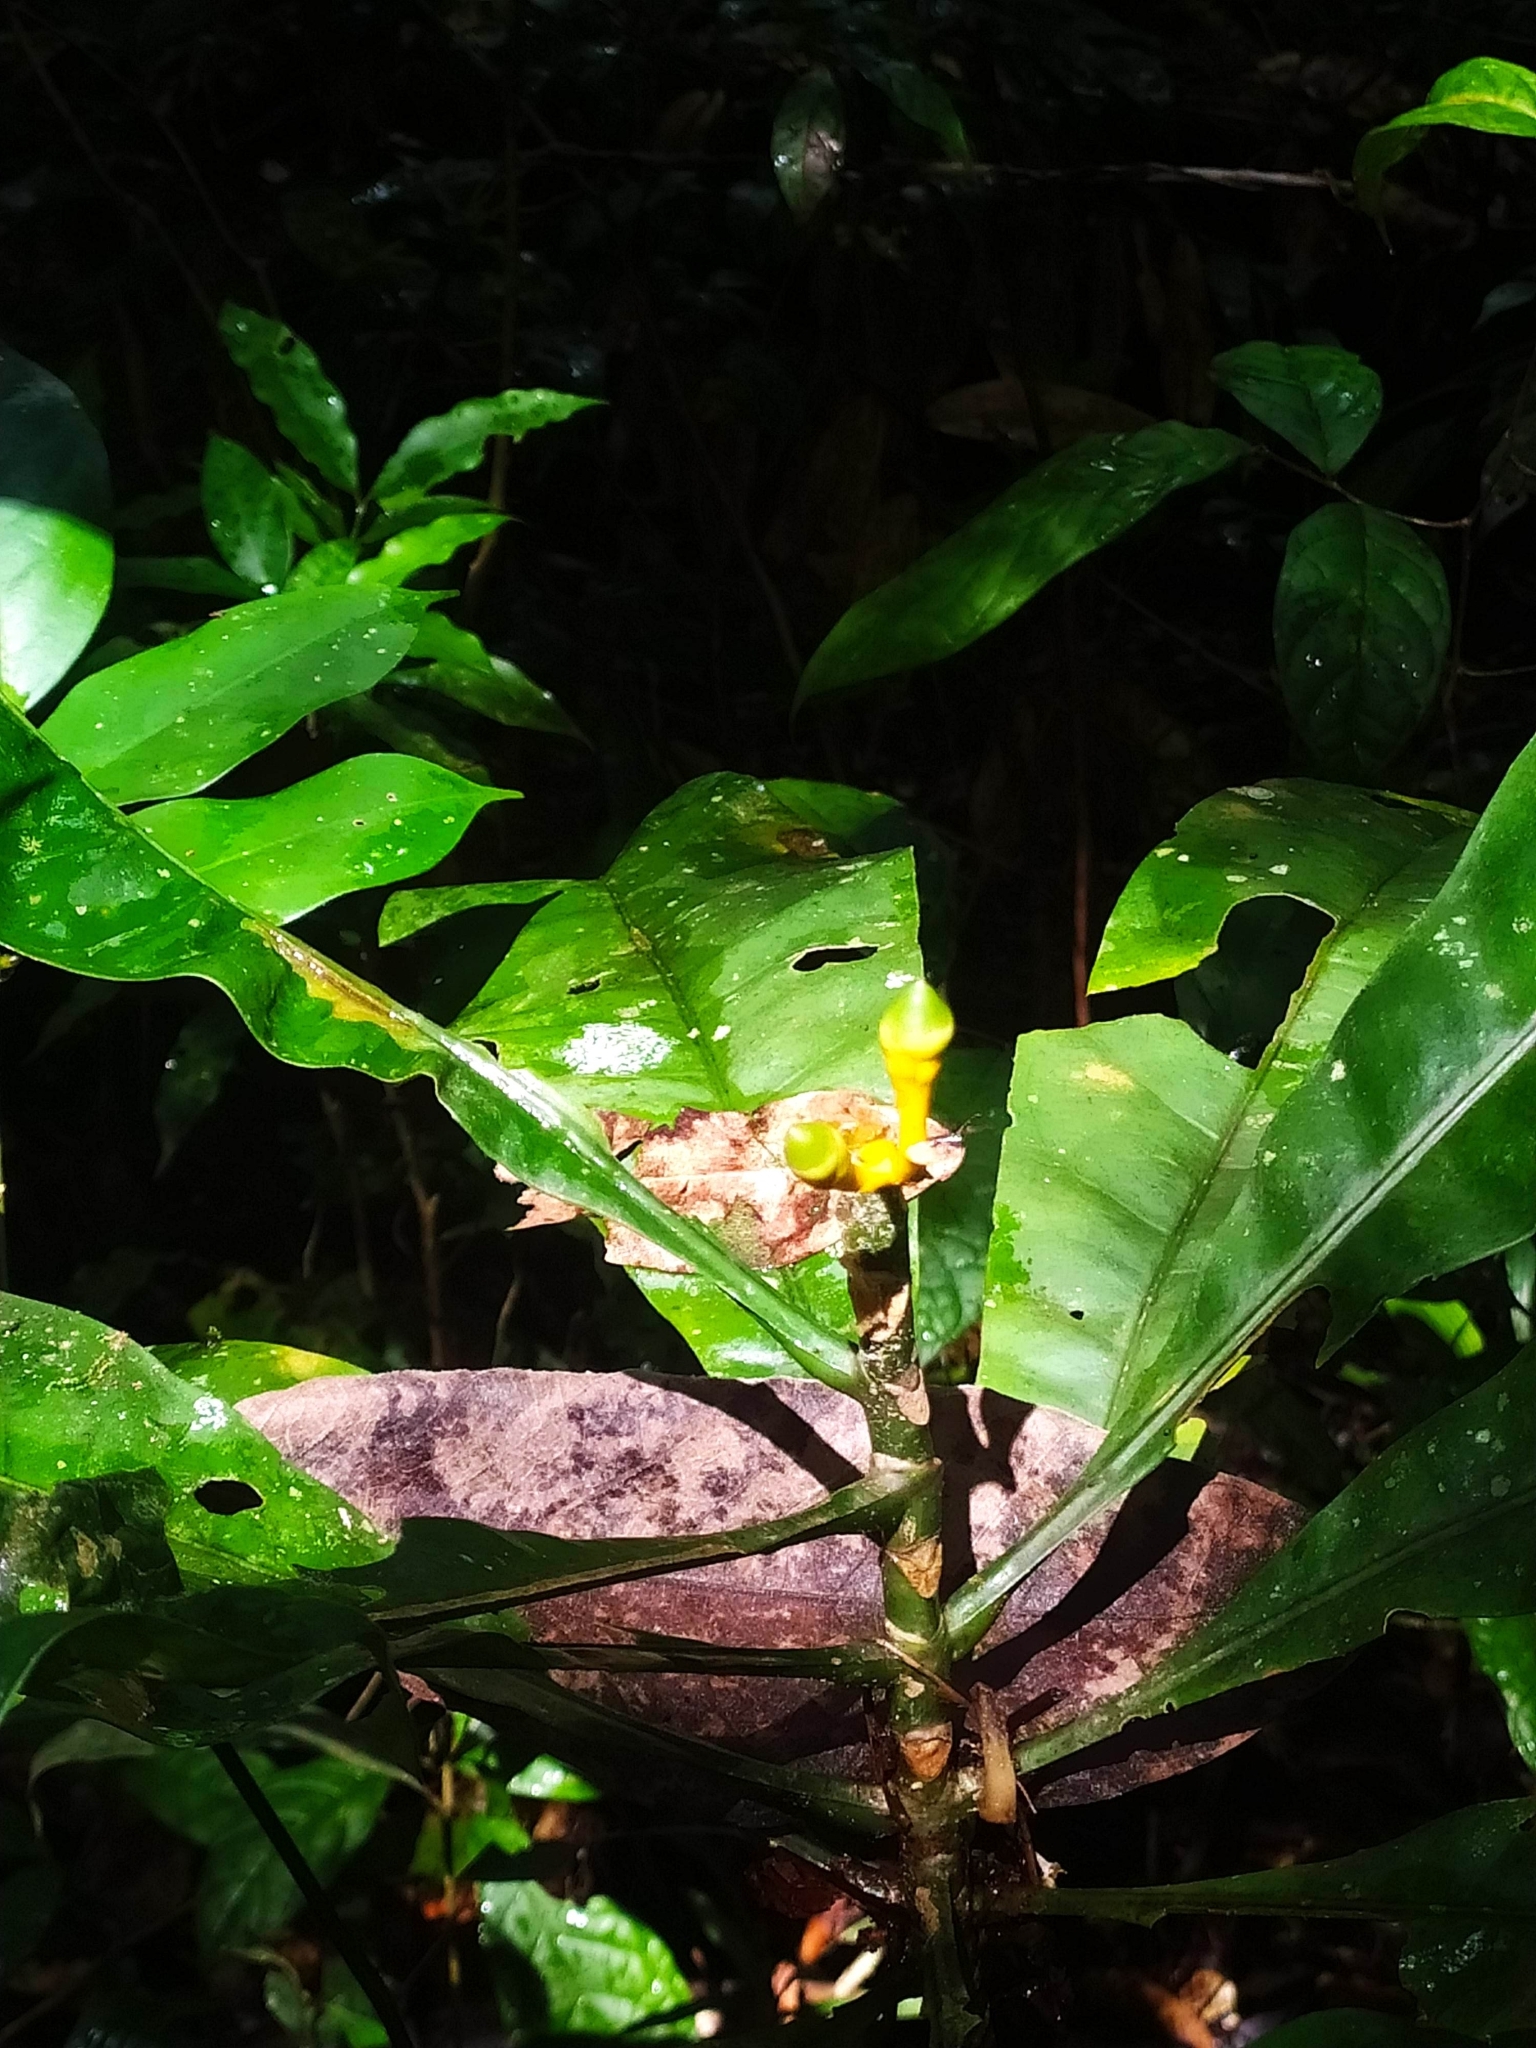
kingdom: Plantae
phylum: Tracheophyta
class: Magnoliopsida
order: Gentianales
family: Gentianaceae
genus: Potalia
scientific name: Potalia amara
